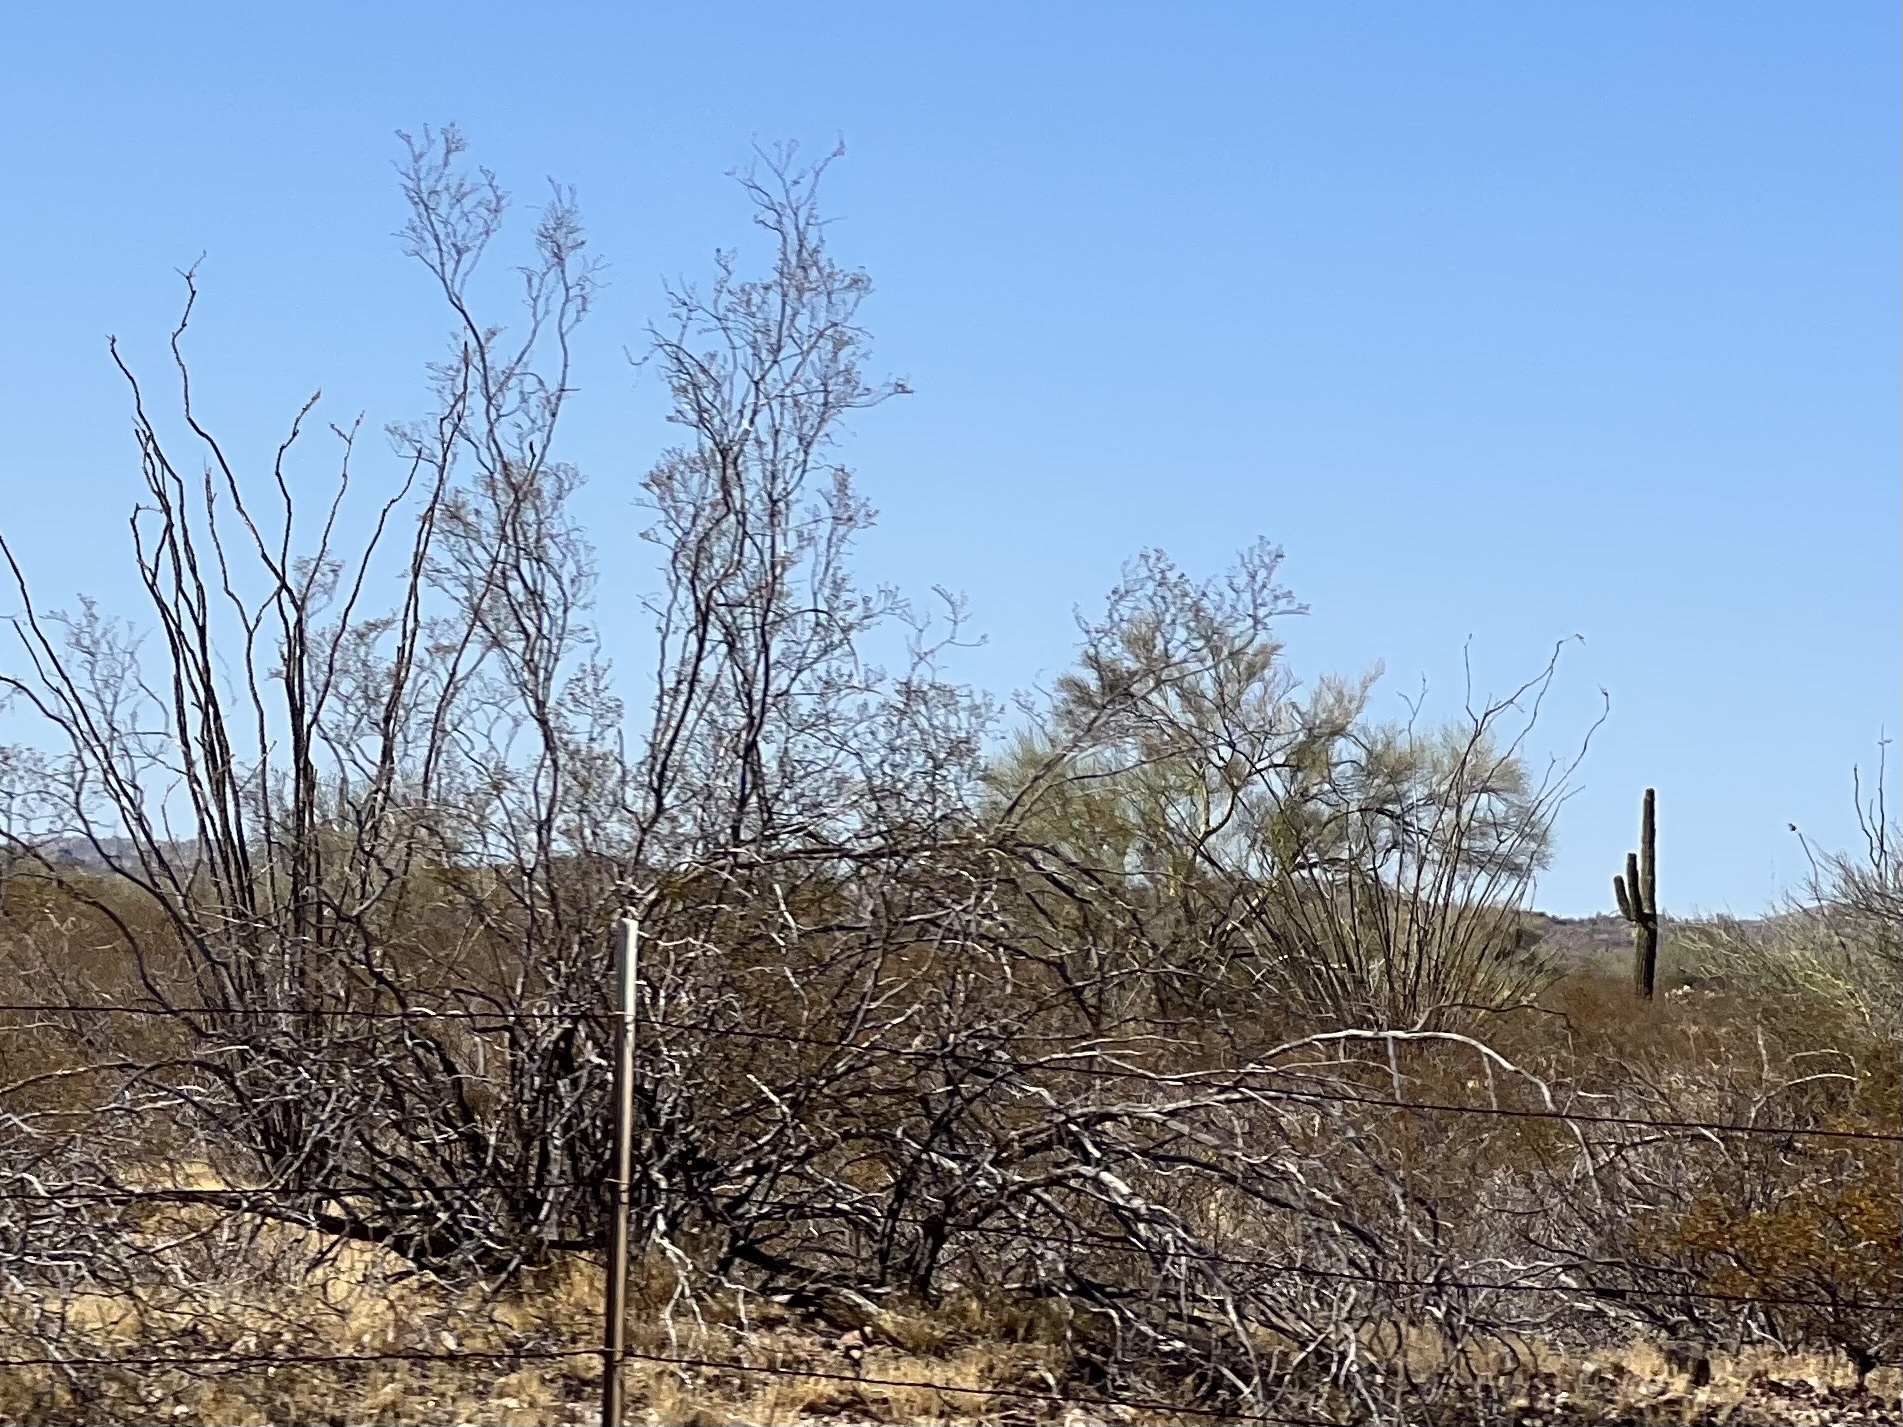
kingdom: Plantae
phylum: Tracheophyta
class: Magnoliopsida
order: Zygophyllales
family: Zygophyllaceae
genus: Larrea
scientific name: Larrea tridentata
